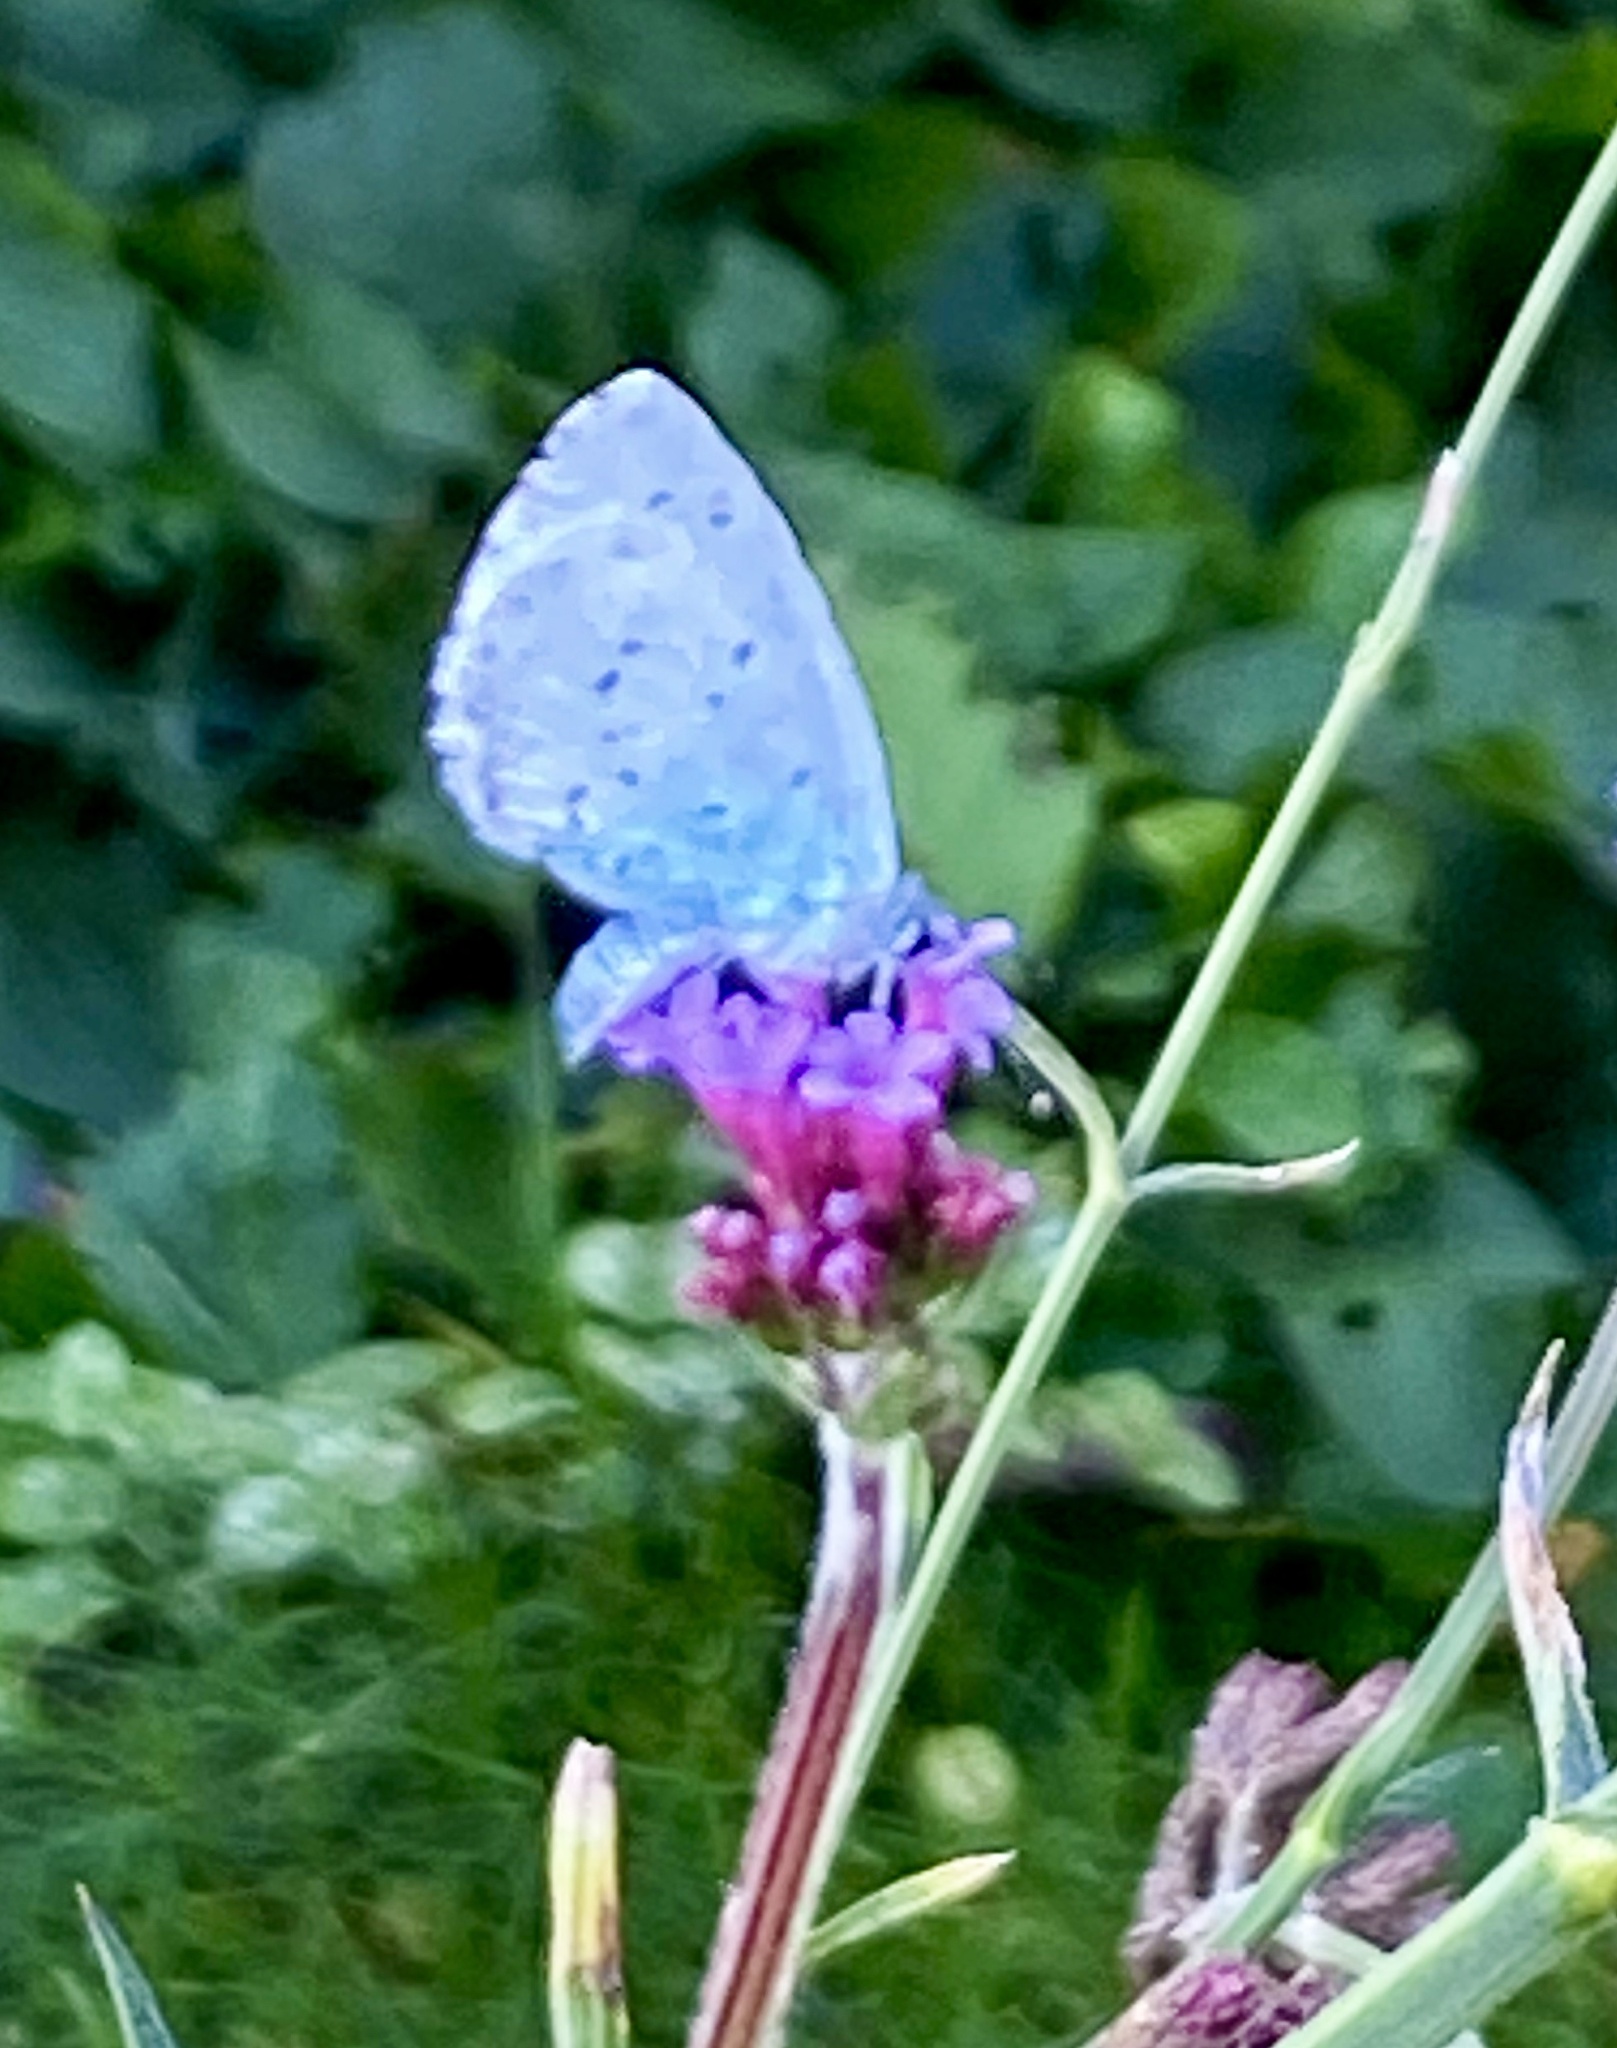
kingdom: Animalia
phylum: Arthropoda
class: Insecta
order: Lepidoptera
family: Lycaenidae
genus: Celastrina
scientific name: Celastrina argiolus
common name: Holly blue
